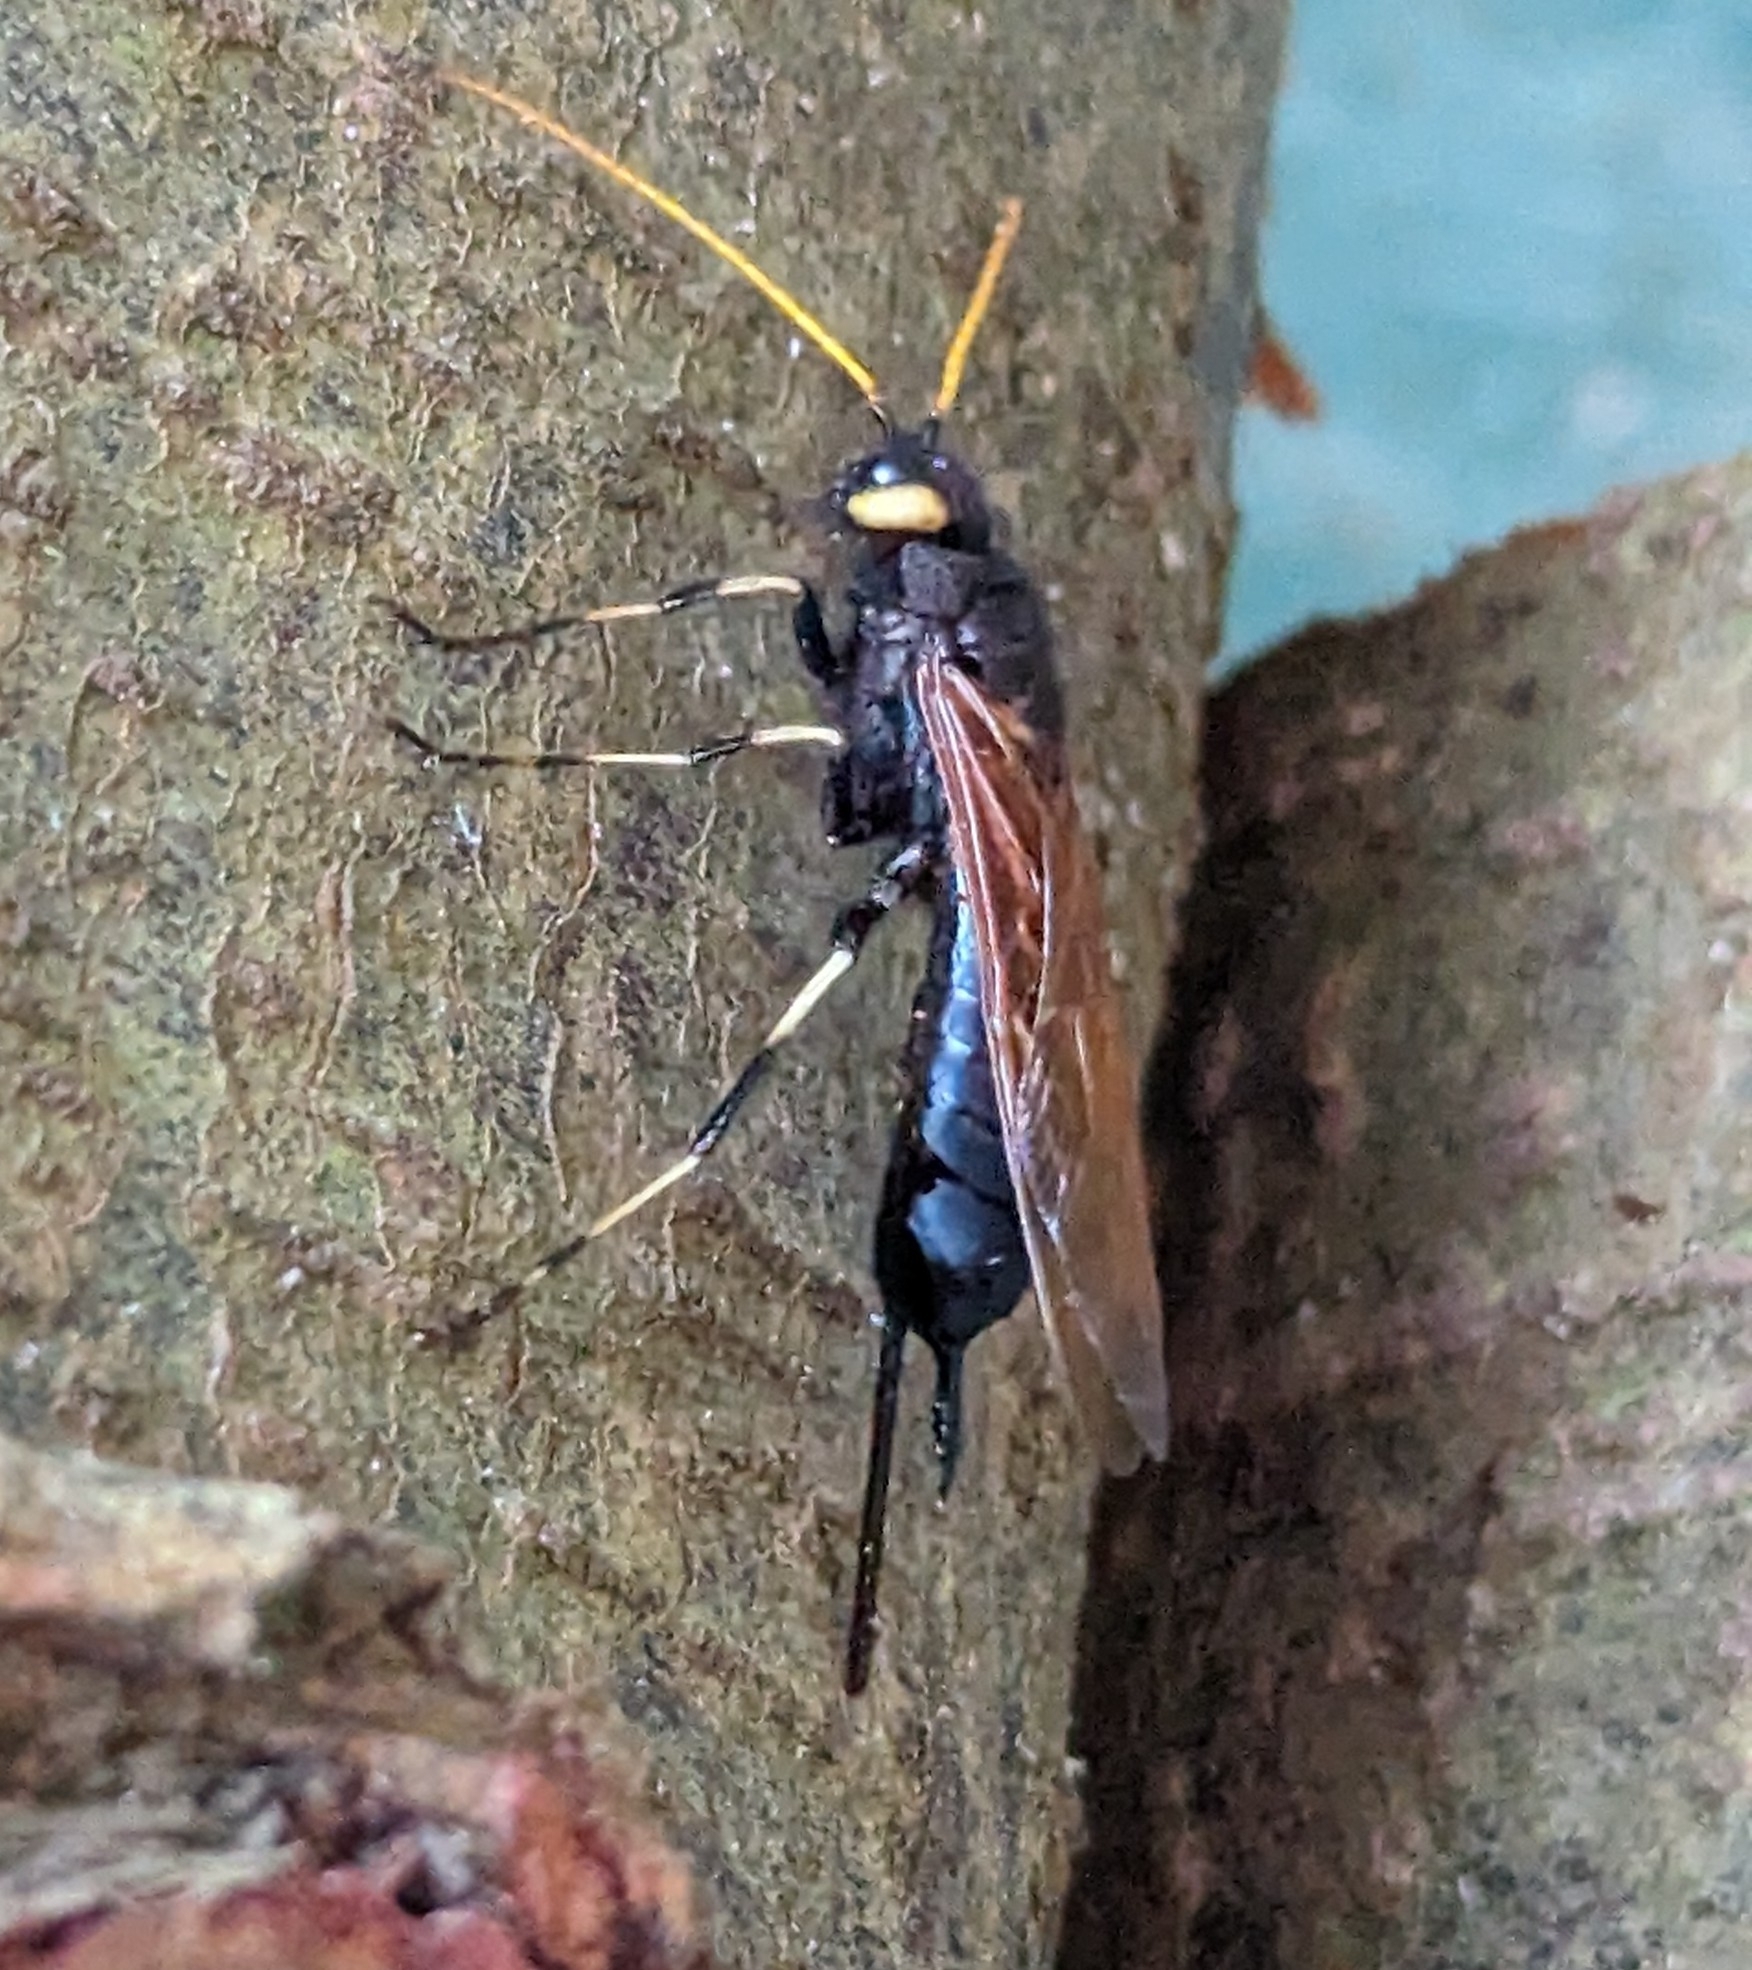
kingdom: Animalia
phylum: Arthropoda
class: Insecta
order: Hymenoptera
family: Siricidae
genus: Urocerus
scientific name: Urocerus californicus
